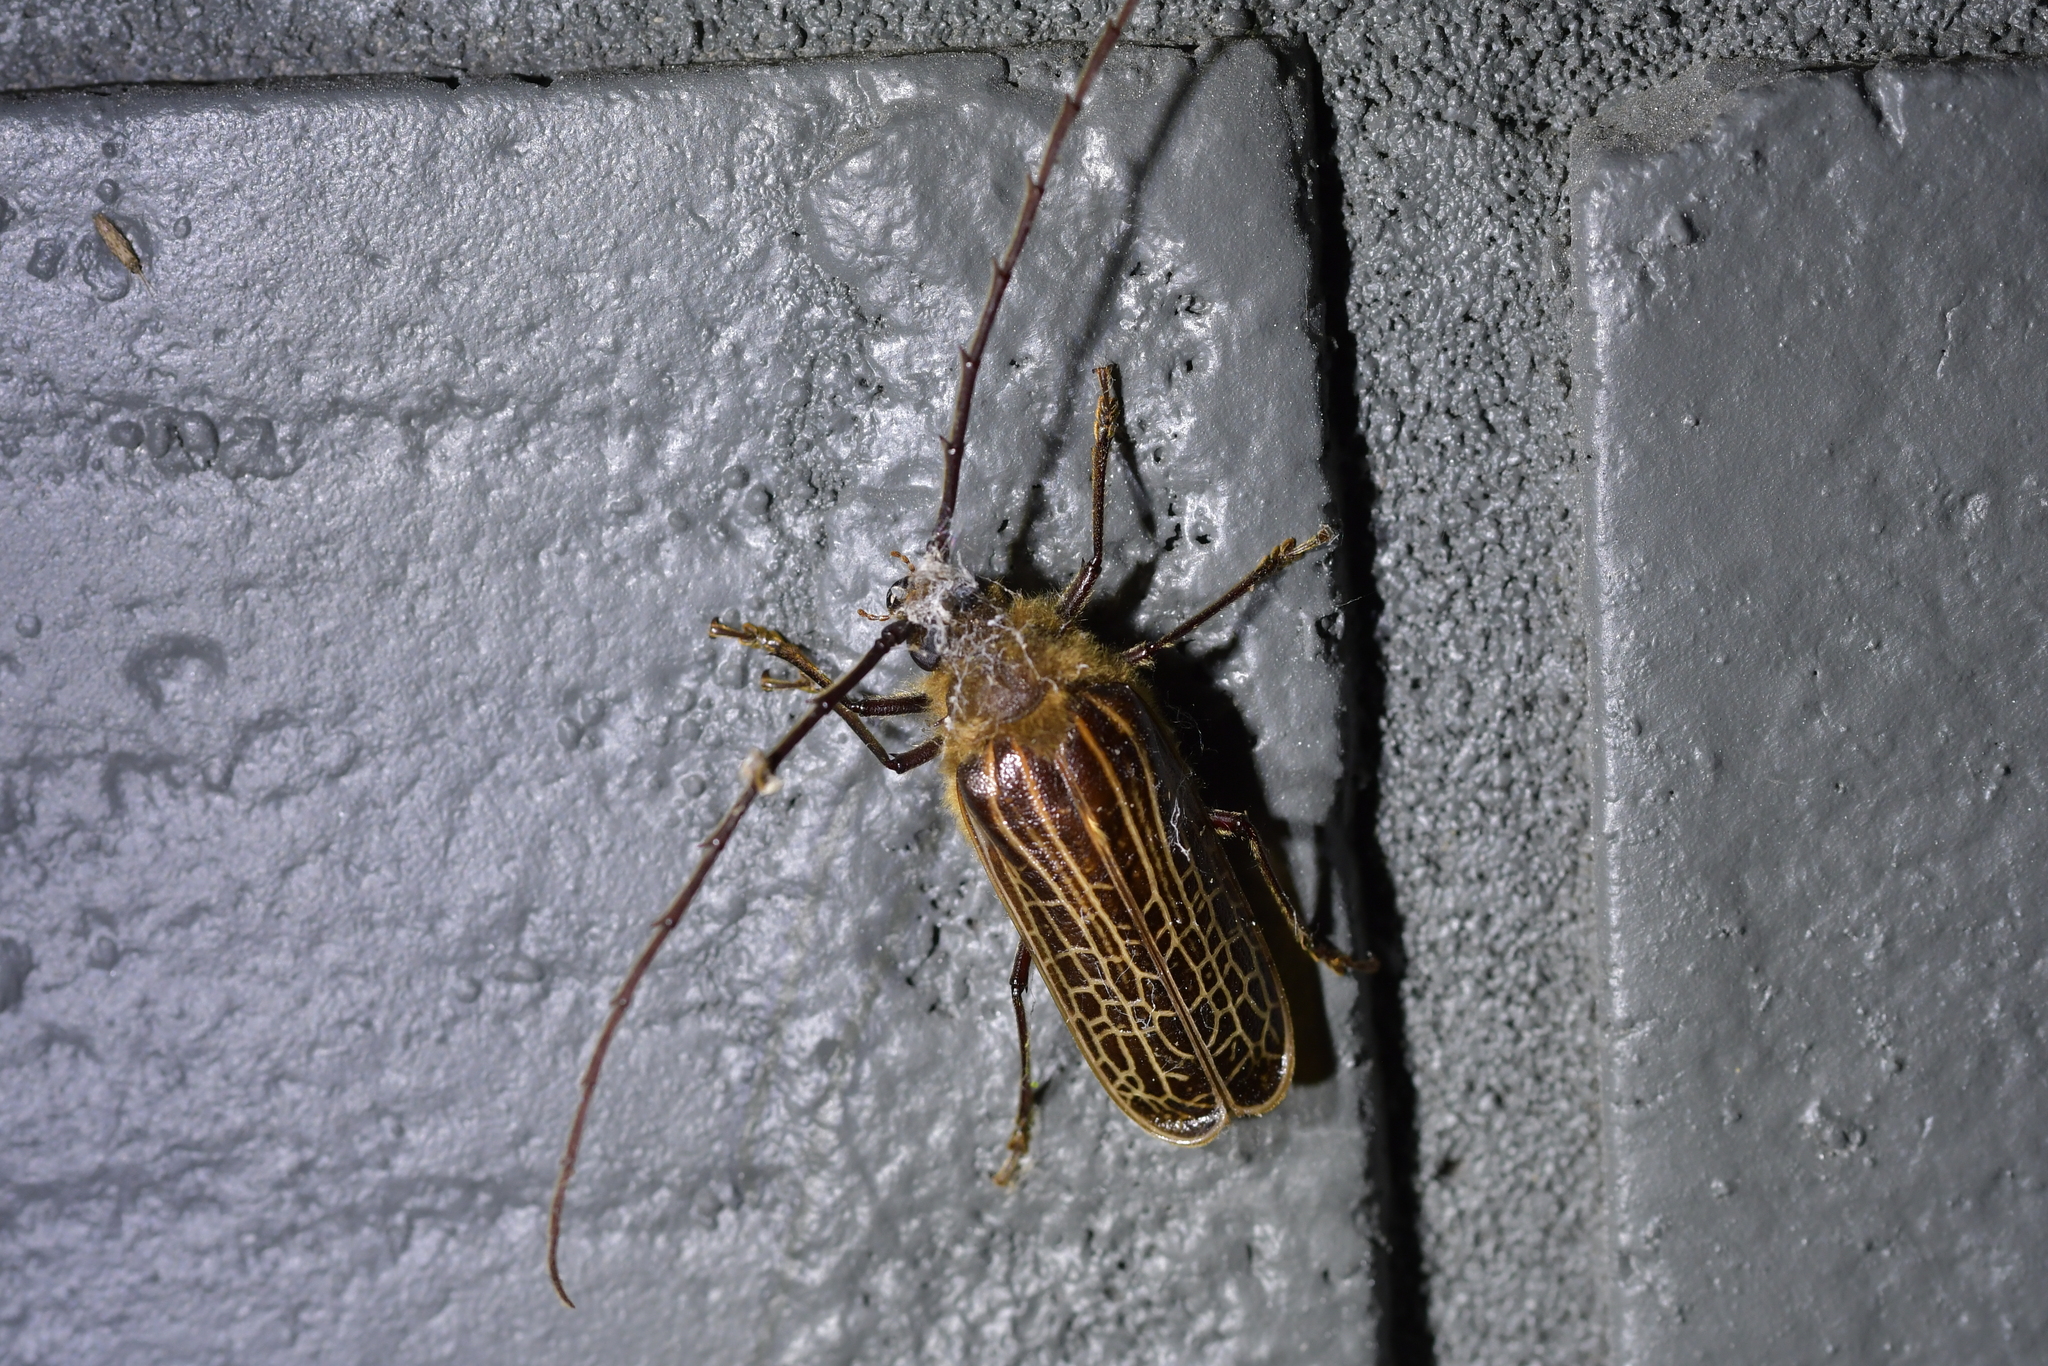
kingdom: Animalia
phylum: Arthropoda
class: Insecta
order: Coleoptera
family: Cerambycidae
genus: Prionoplus
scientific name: Prionoplus reticularis
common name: Huhu beetle
